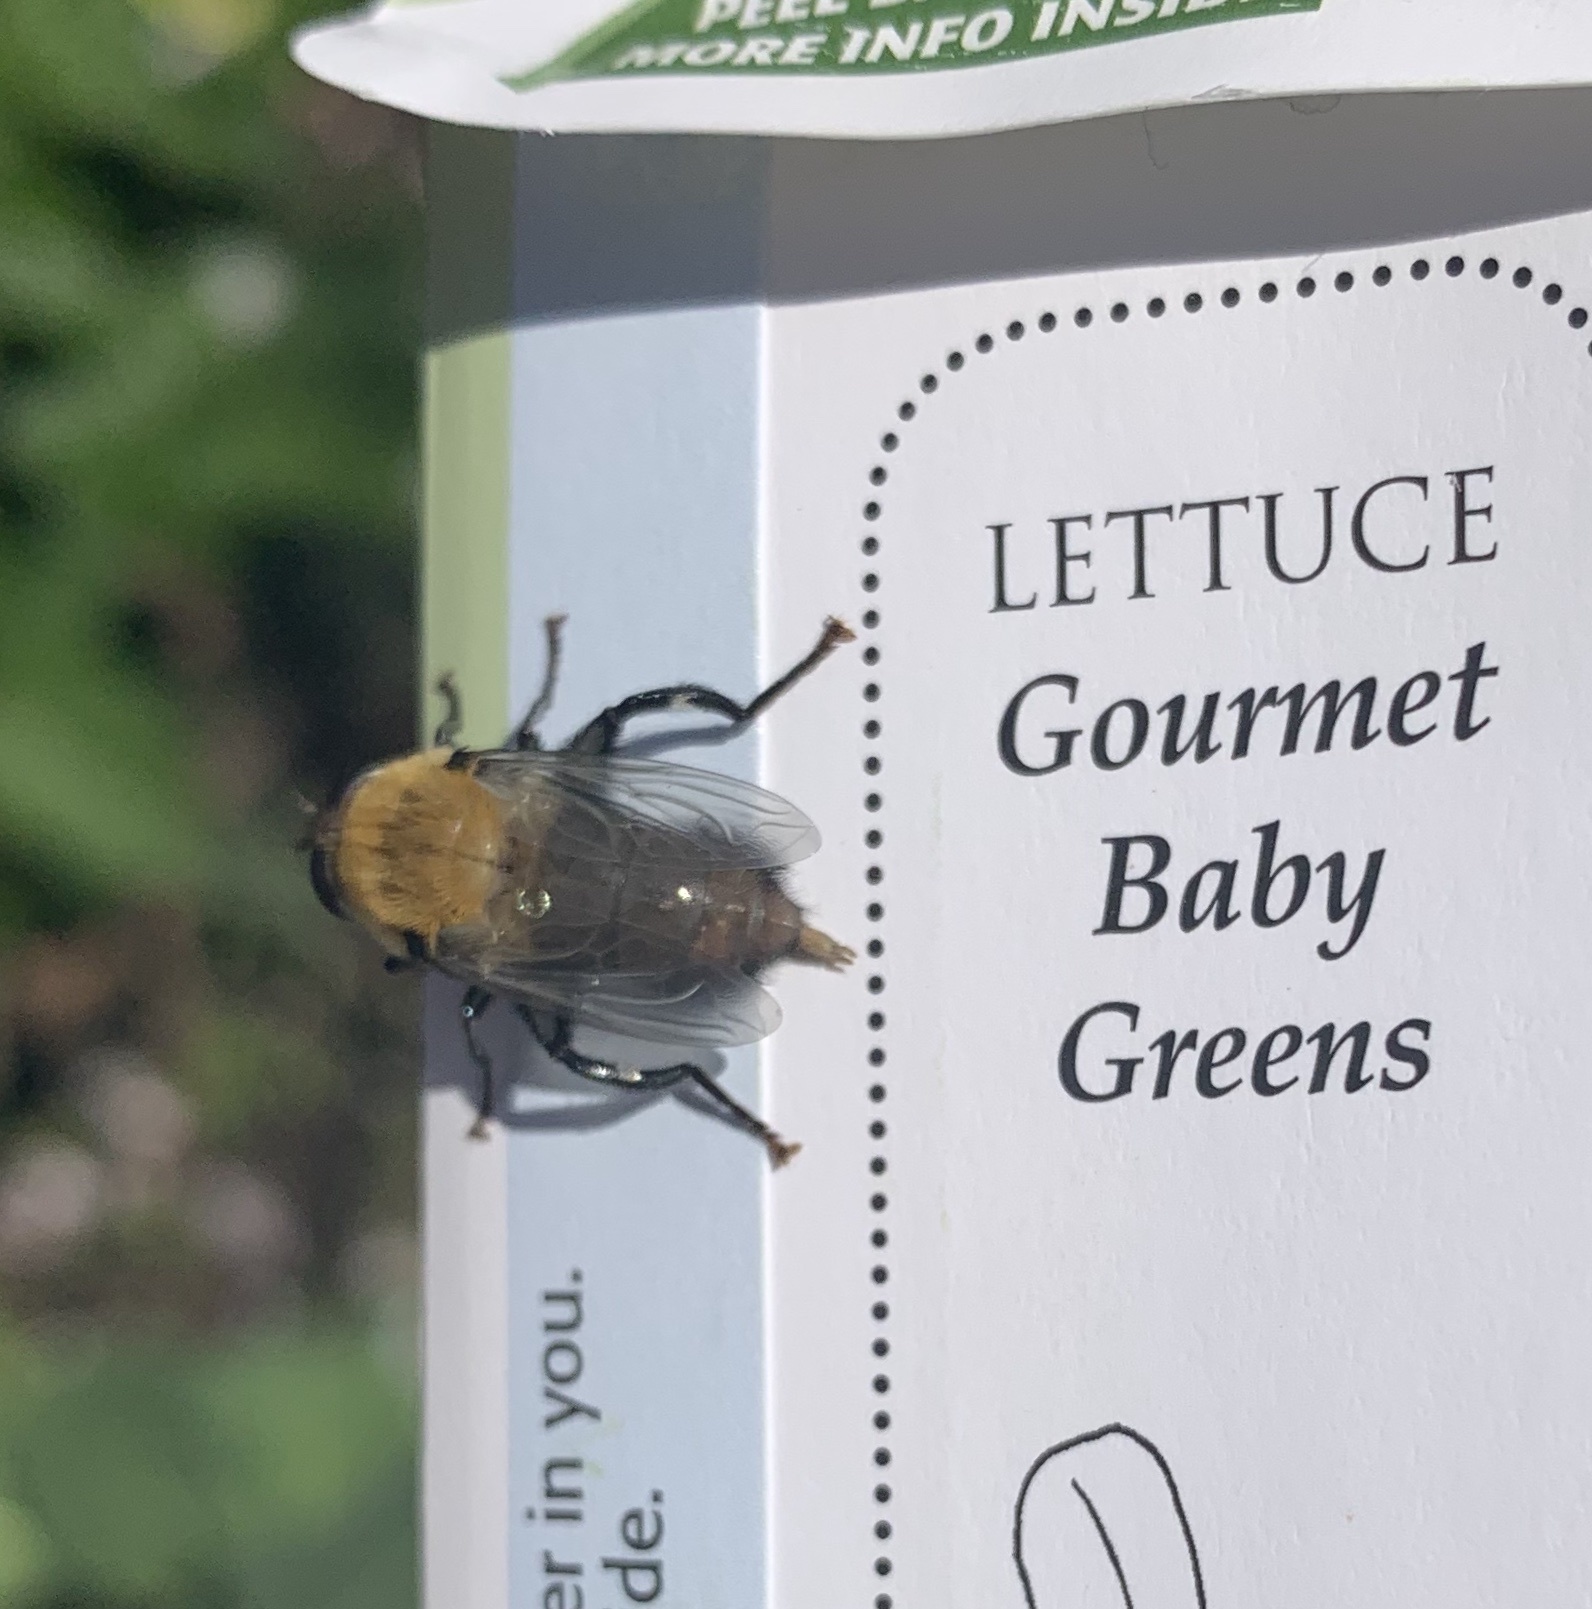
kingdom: Animalia
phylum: Arthropoda
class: Insecta
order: Diptera
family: Syrphidae
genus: Imatisma
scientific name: Imatisma bautias
